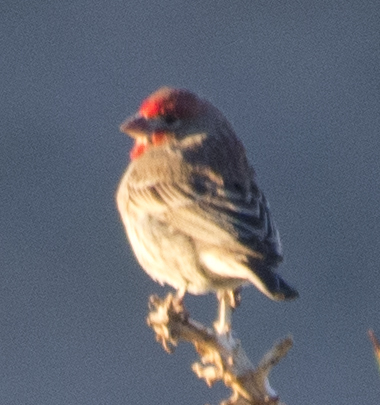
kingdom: Animalia
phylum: Chordata
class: Aves
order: Passeriformes
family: Fringillidae
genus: Haemorhous
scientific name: Haemorhous mexicanus
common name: House finch
